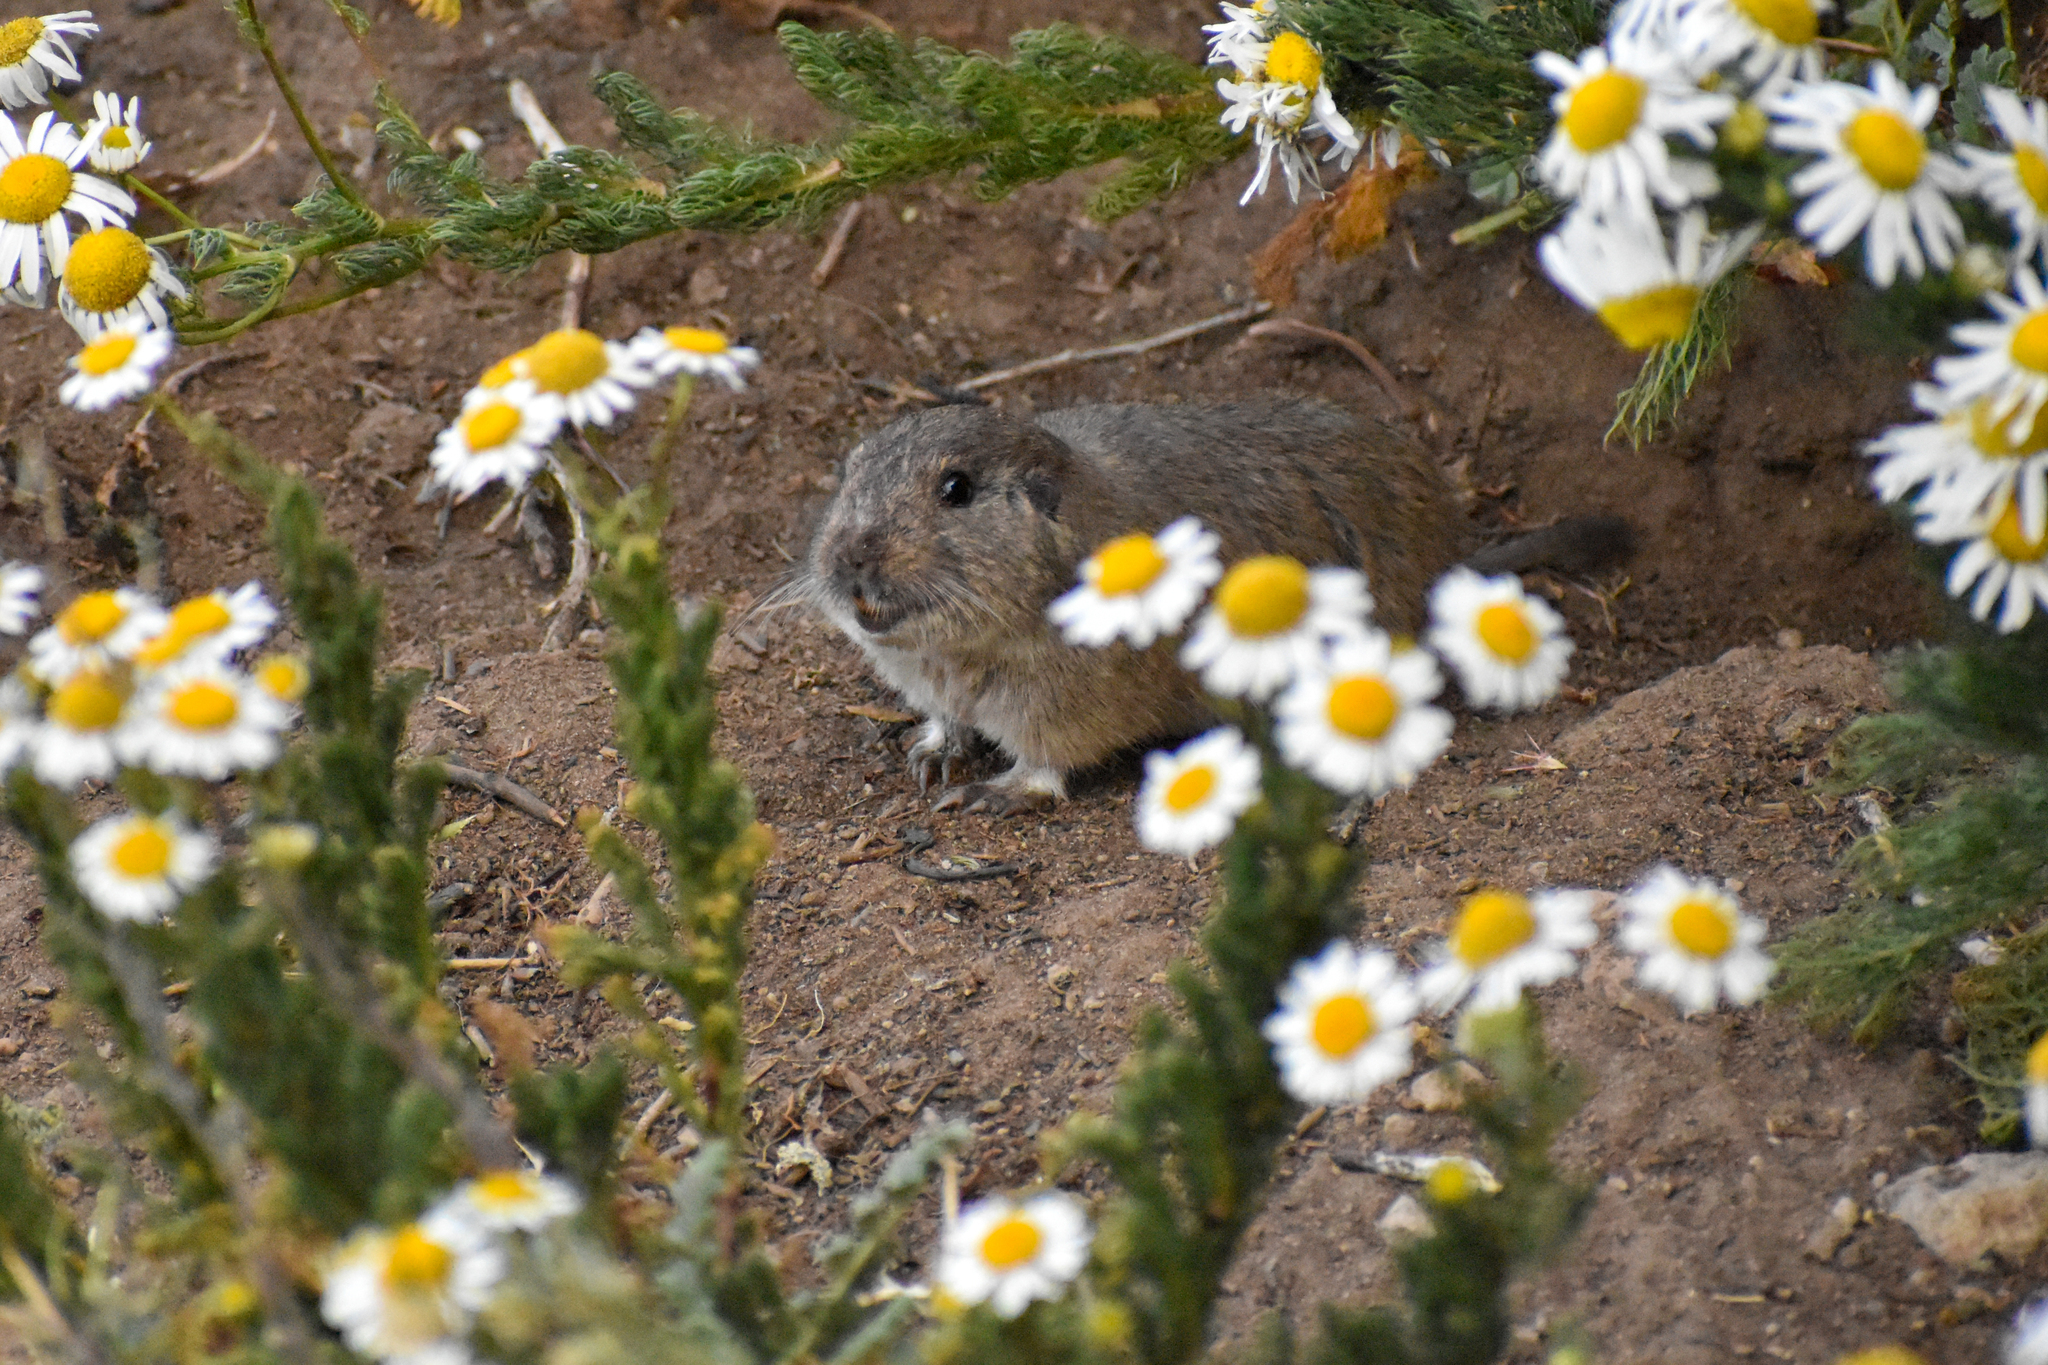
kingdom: Animalia
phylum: Chordata
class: Mammalia
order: Rodentia
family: Ctenomyidae
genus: Ctenomys
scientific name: Ctenomys sericeus
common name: Silky tuco-tuco
